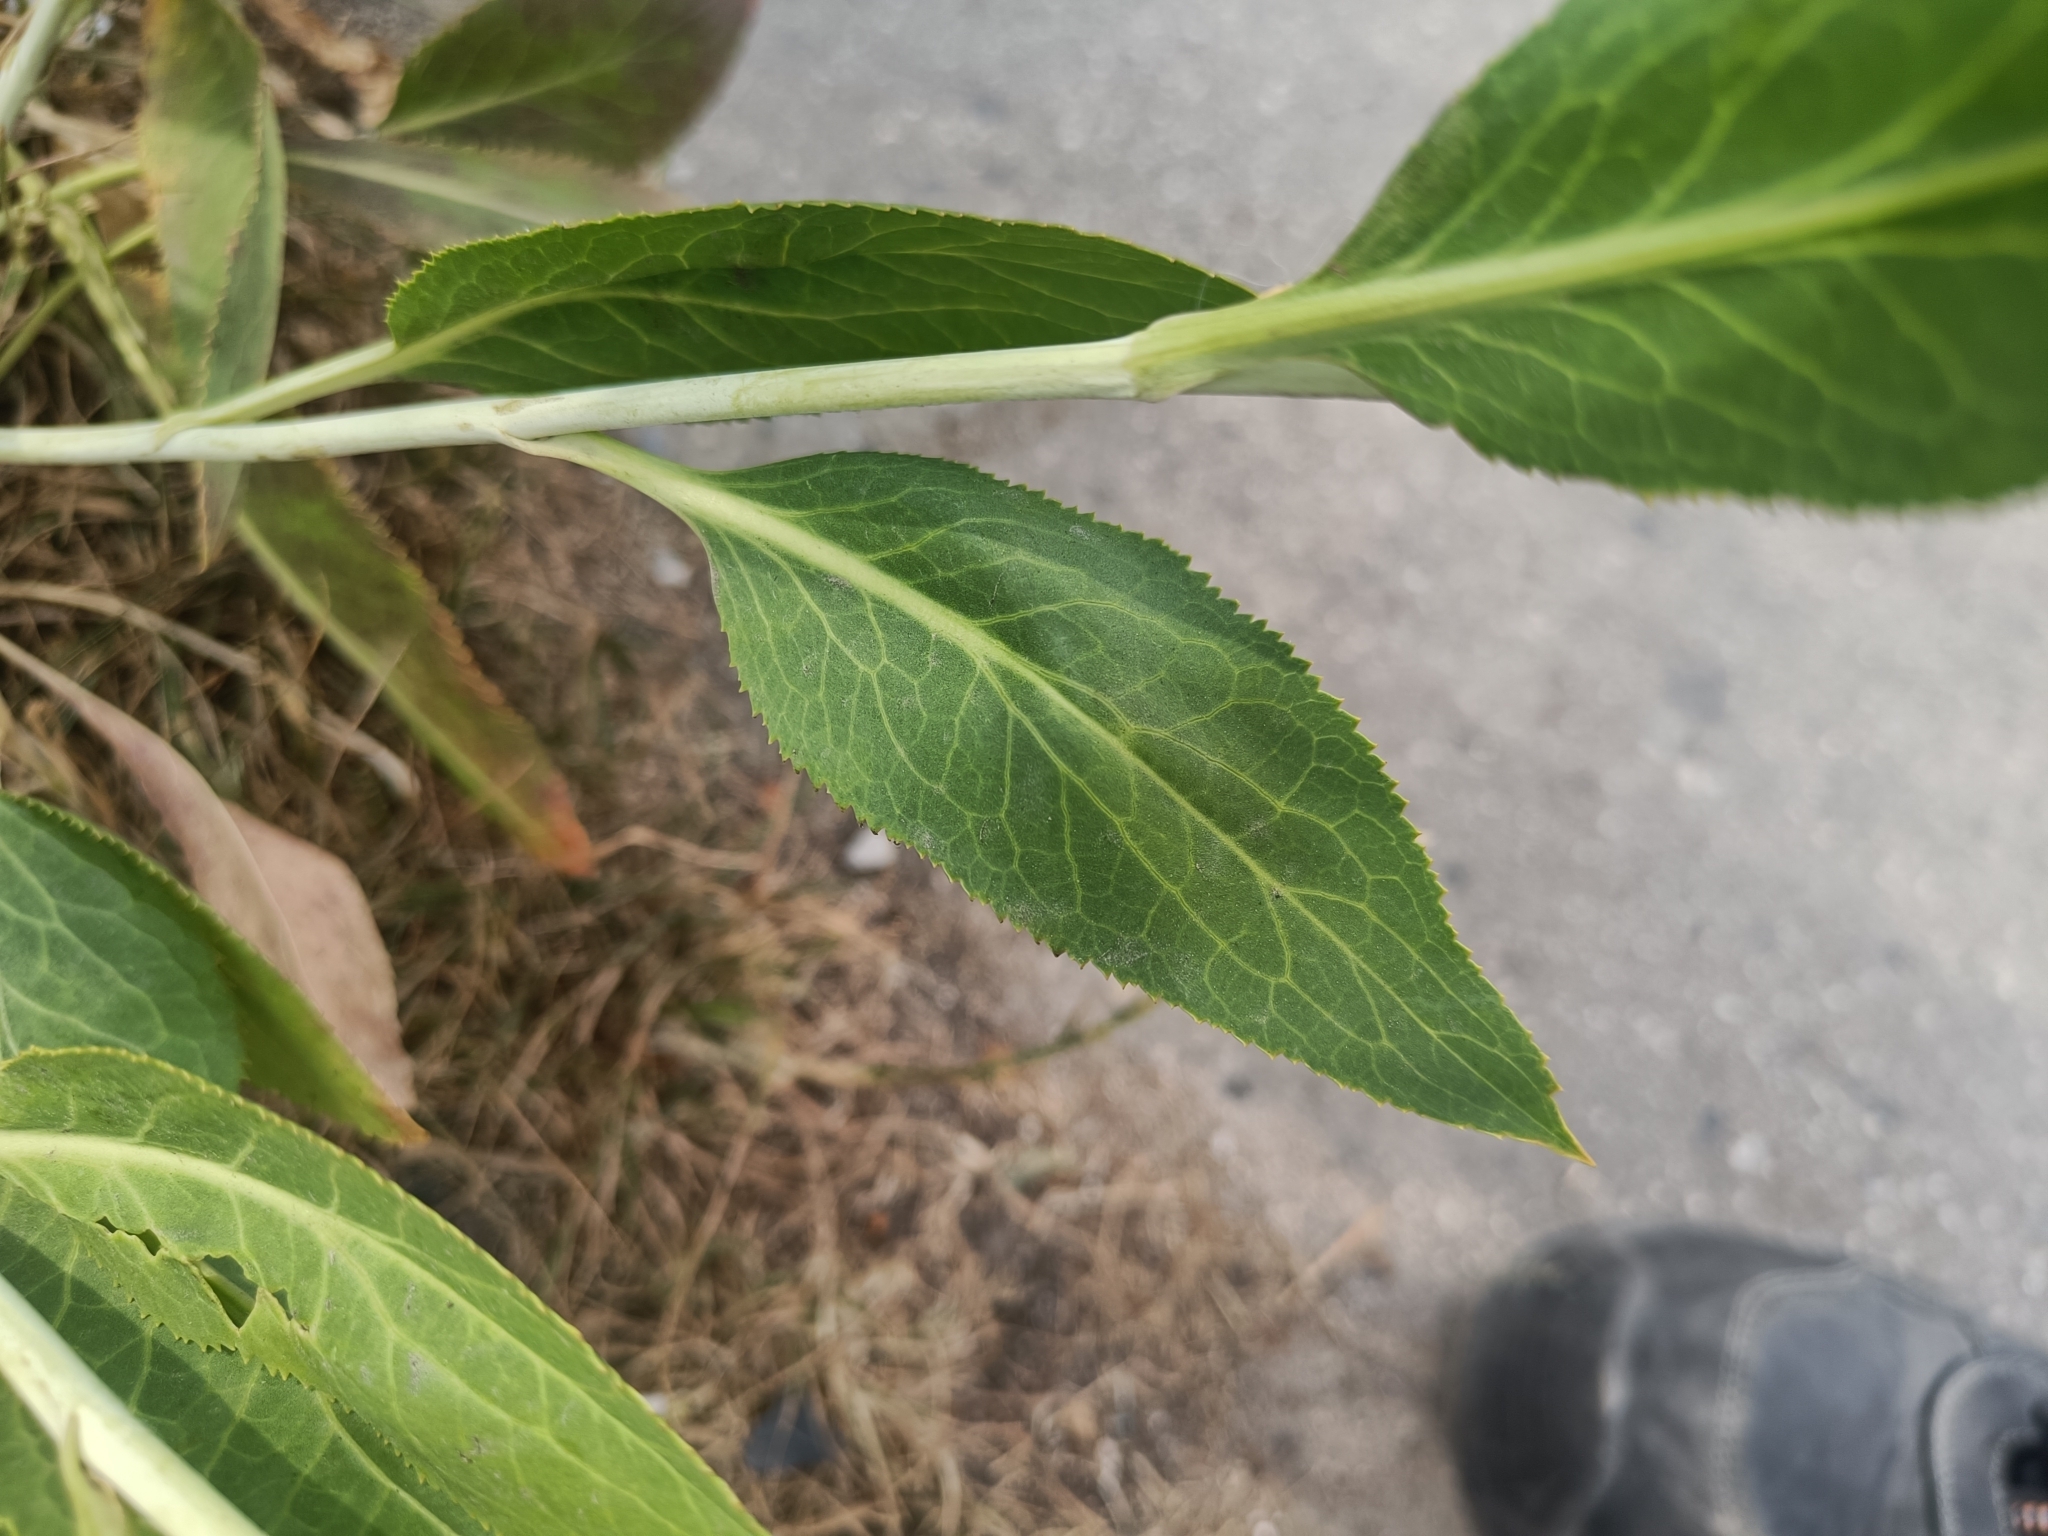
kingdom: Plantae
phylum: Tracheophyta
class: Magnoliopsida
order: Brassicales
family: Brassicaceae
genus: Lepidium
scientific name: Lepidium latifolium
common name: Dittander
